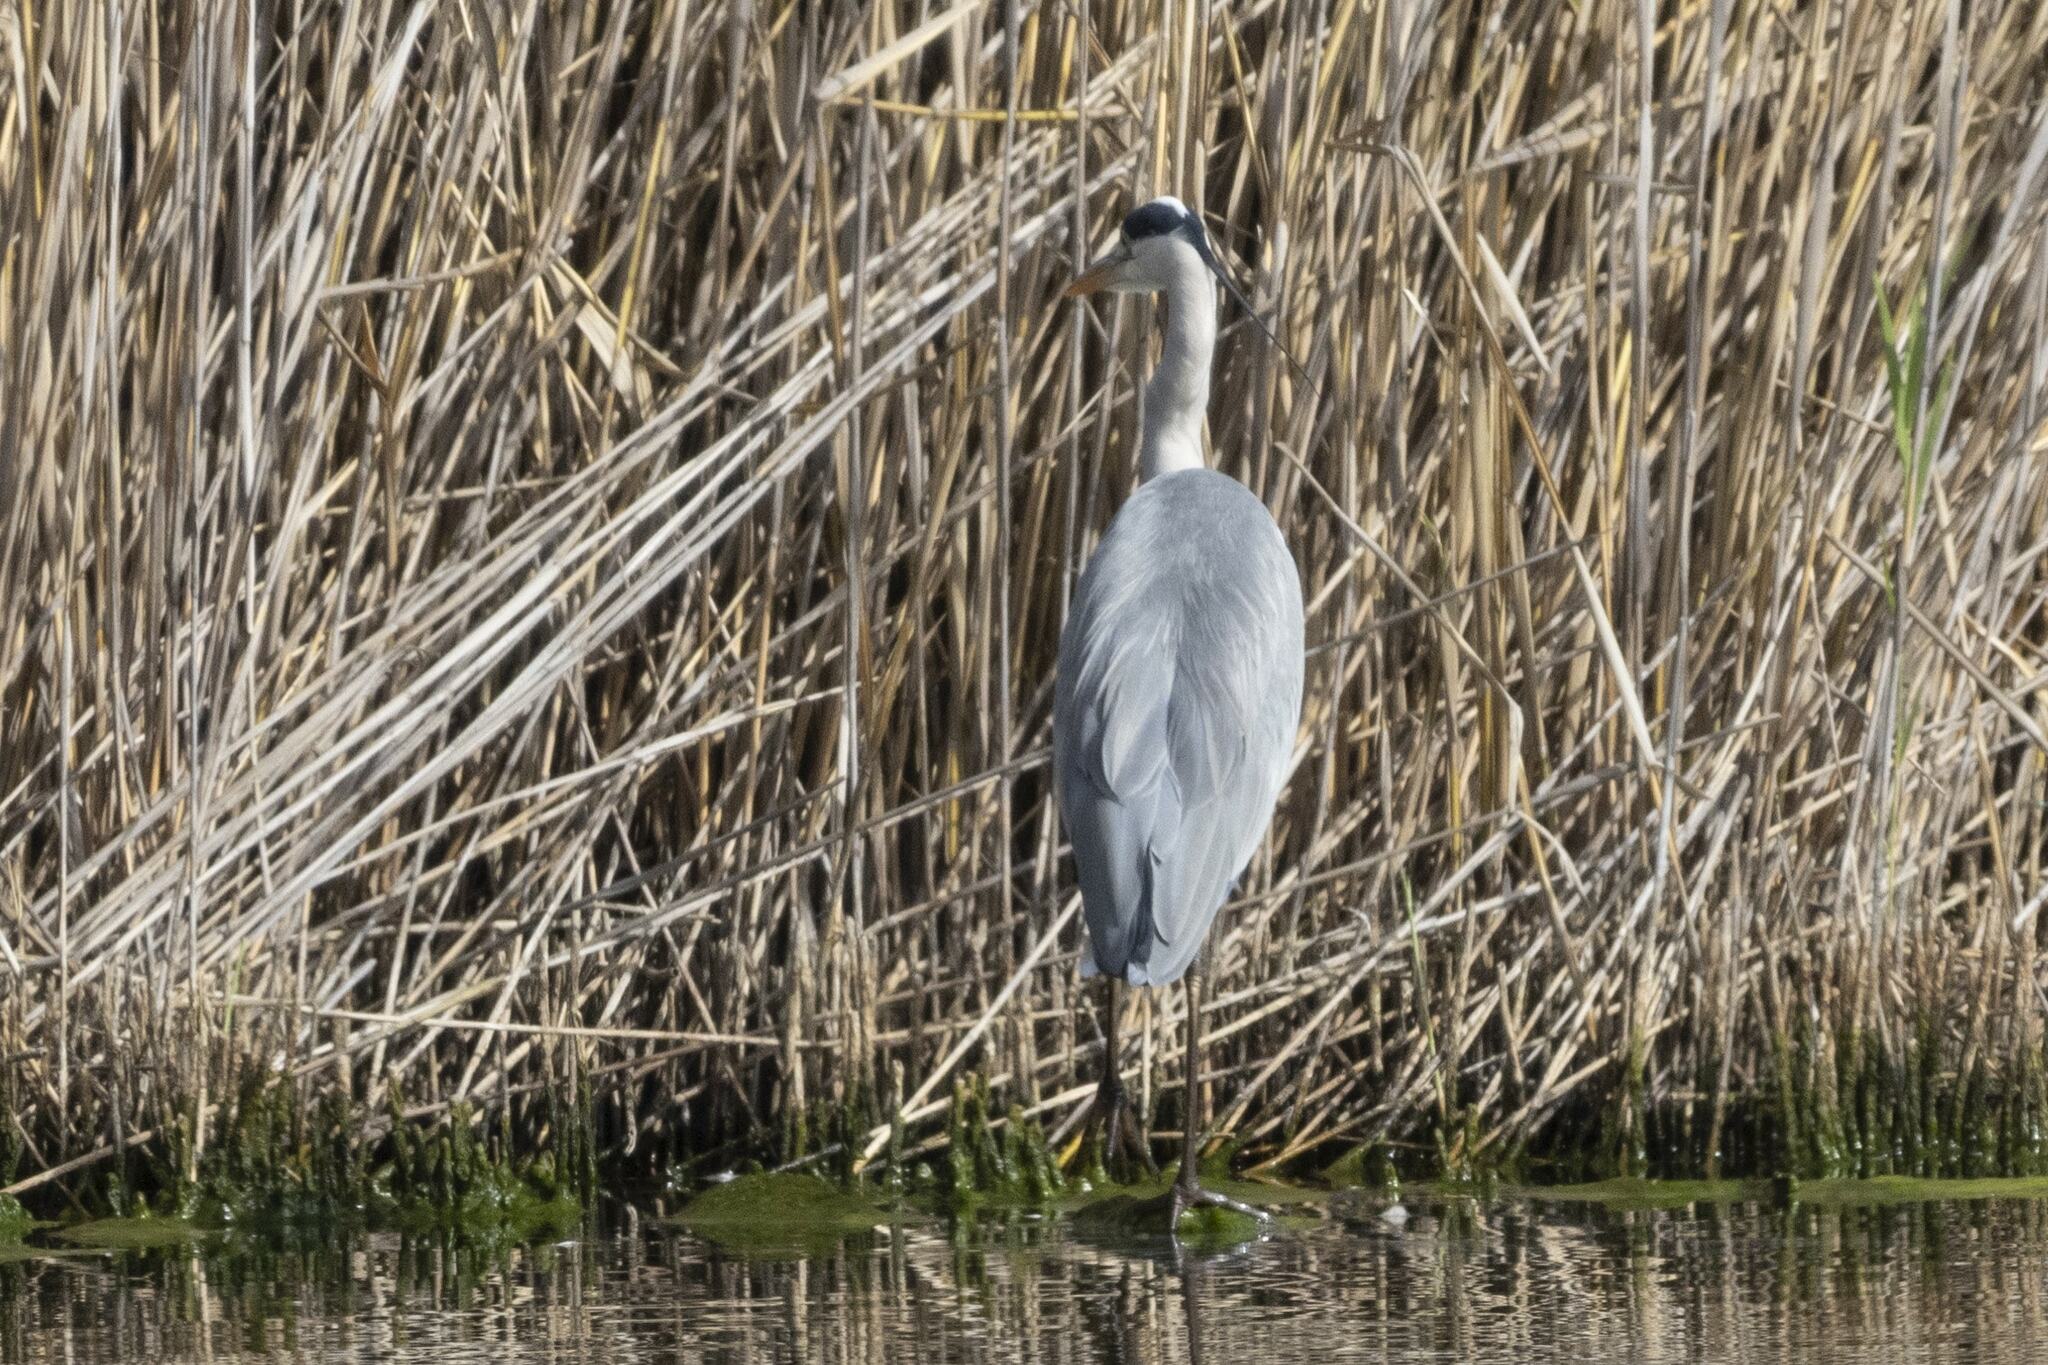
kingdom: Animalia
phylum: Chordata
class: Aves
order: Pelecaniformes
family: Ardeidae
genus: Ardea
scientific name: Ardea cinerea
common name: Grey heron
